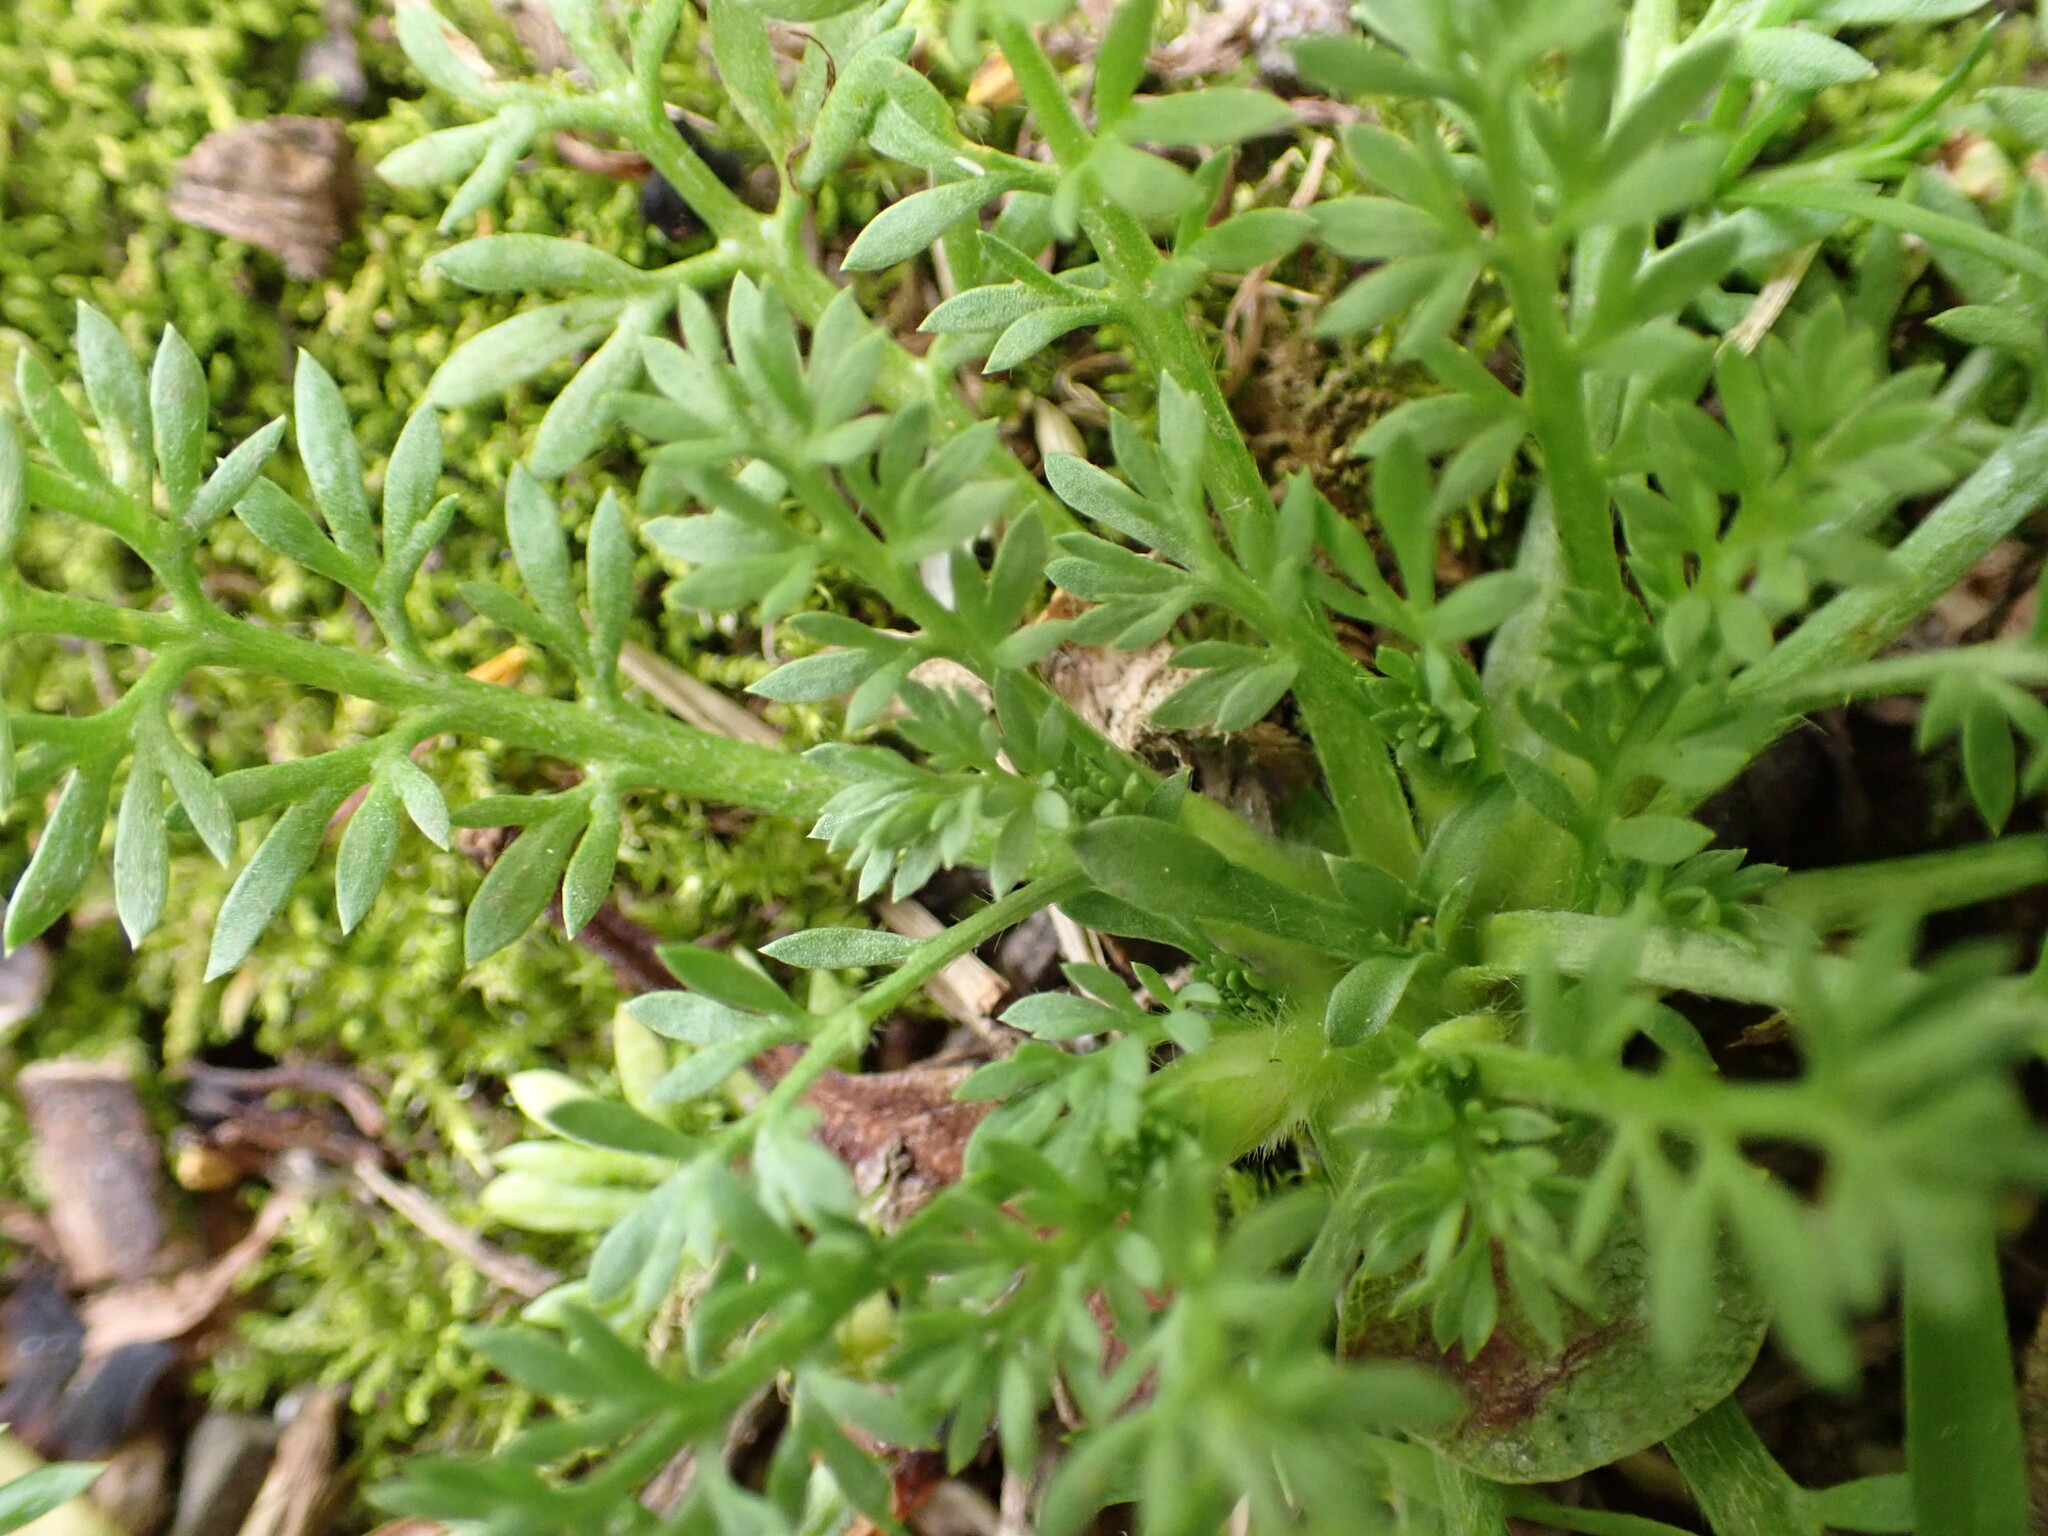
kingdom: Plantae
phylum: Tracheophyta
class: Magnoliopsida
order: Brassicales
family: Brassicaceae
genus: Lepidium
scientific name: Lepidium didymum
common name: Lesser swinecress
